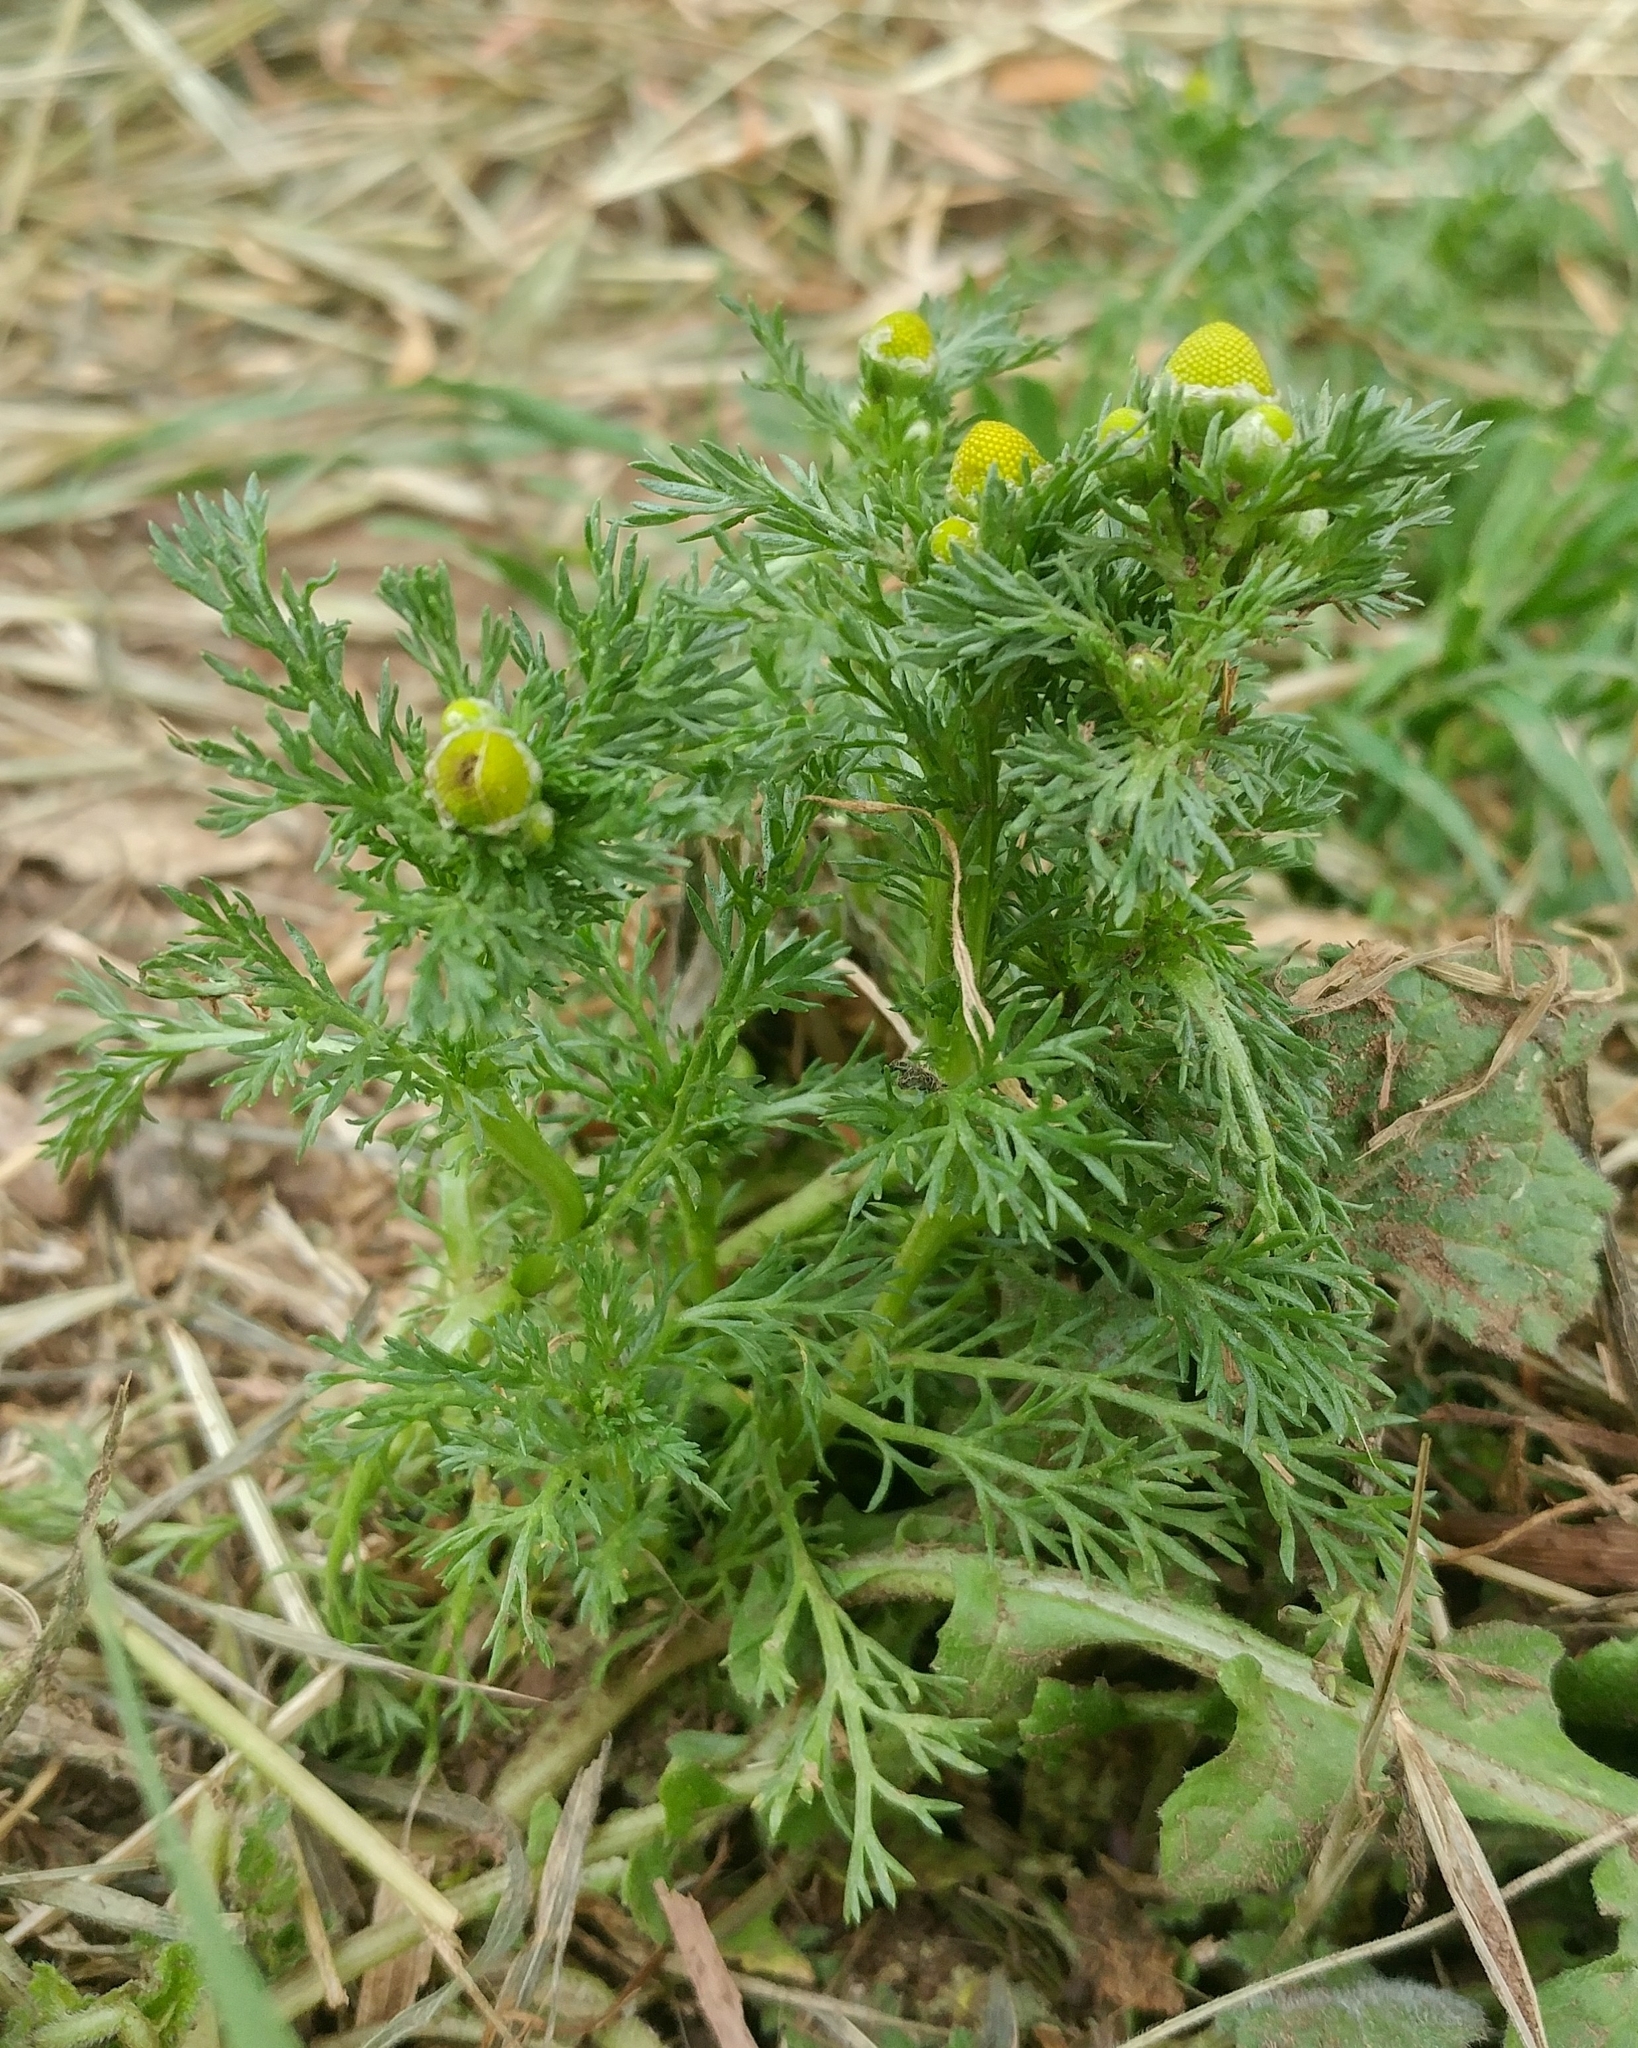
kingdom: Plantae
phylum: Tracheophyta
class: Magnoliopsida
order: Asterales
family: Asteraceae
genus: Matricaria
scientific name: Matricaria discoidea
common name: Disc mayweed
